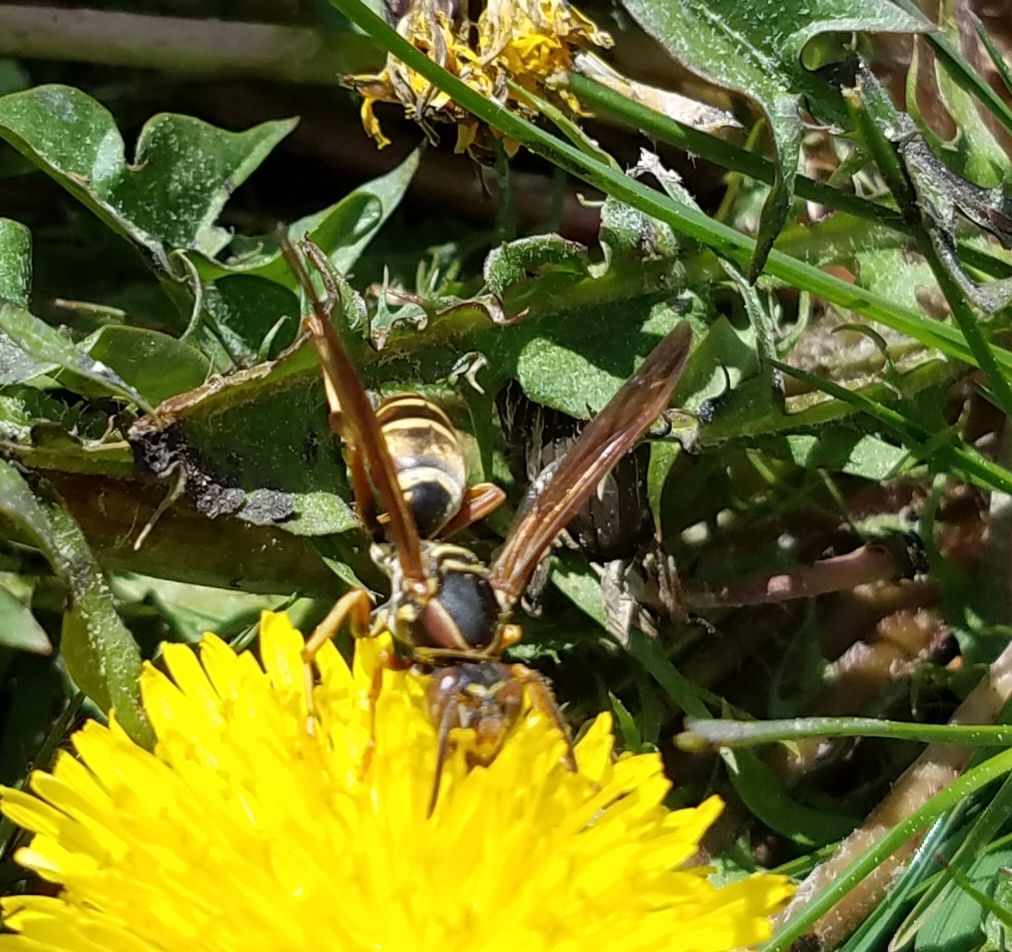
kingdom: Animalia
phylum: Arthropoda
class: Insecta
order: Hymenoptera
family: Eumenidae
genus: Polistes
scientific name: Polistes fuscatus
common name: Dark paper wasp
